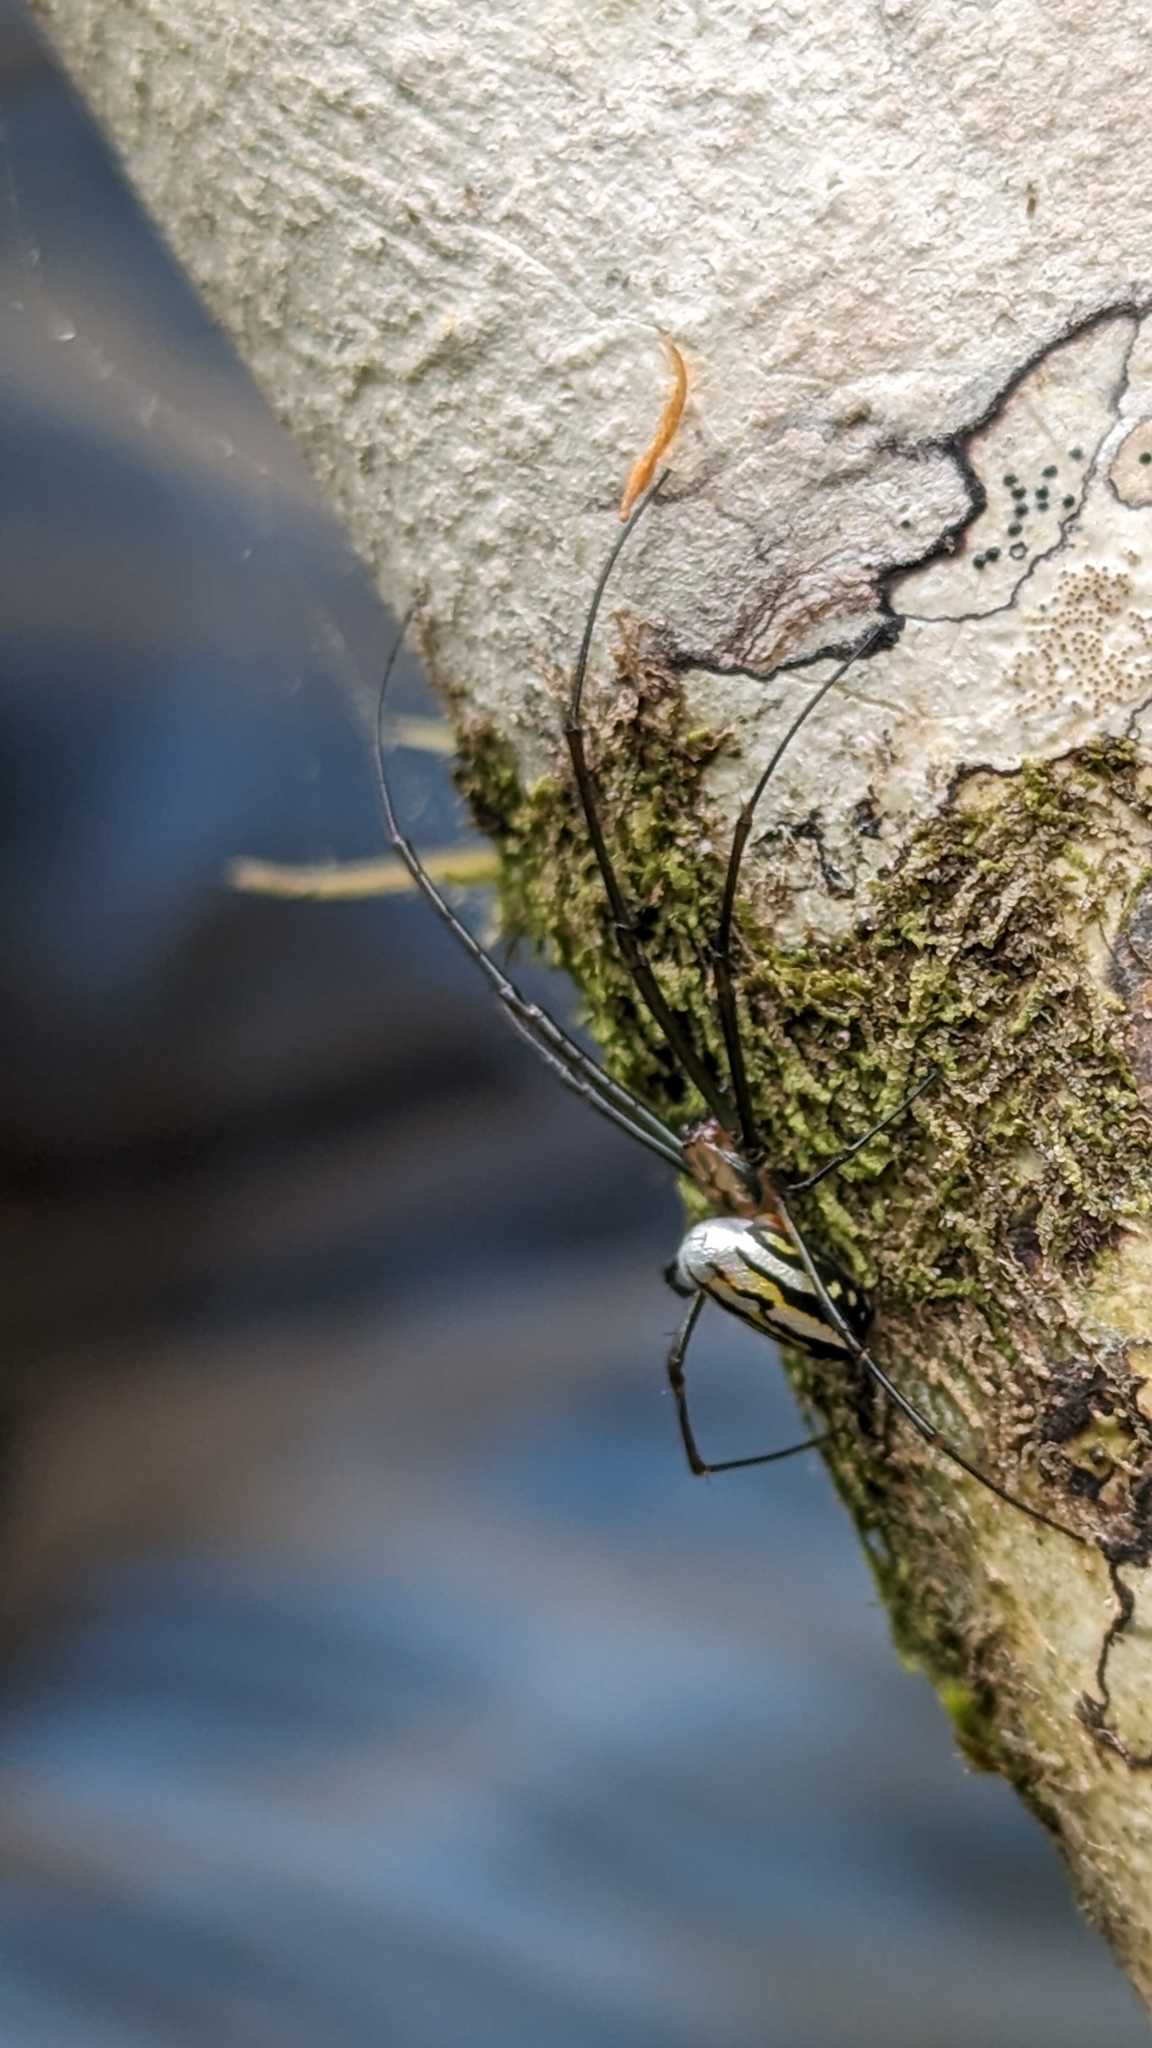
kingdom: Animalia
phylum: Arthropoda
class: Arachnida
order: Araneae
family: Tetragnathidae
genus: Leucauge
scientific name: Leucauge argyra
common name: Longjawed orb weavers
